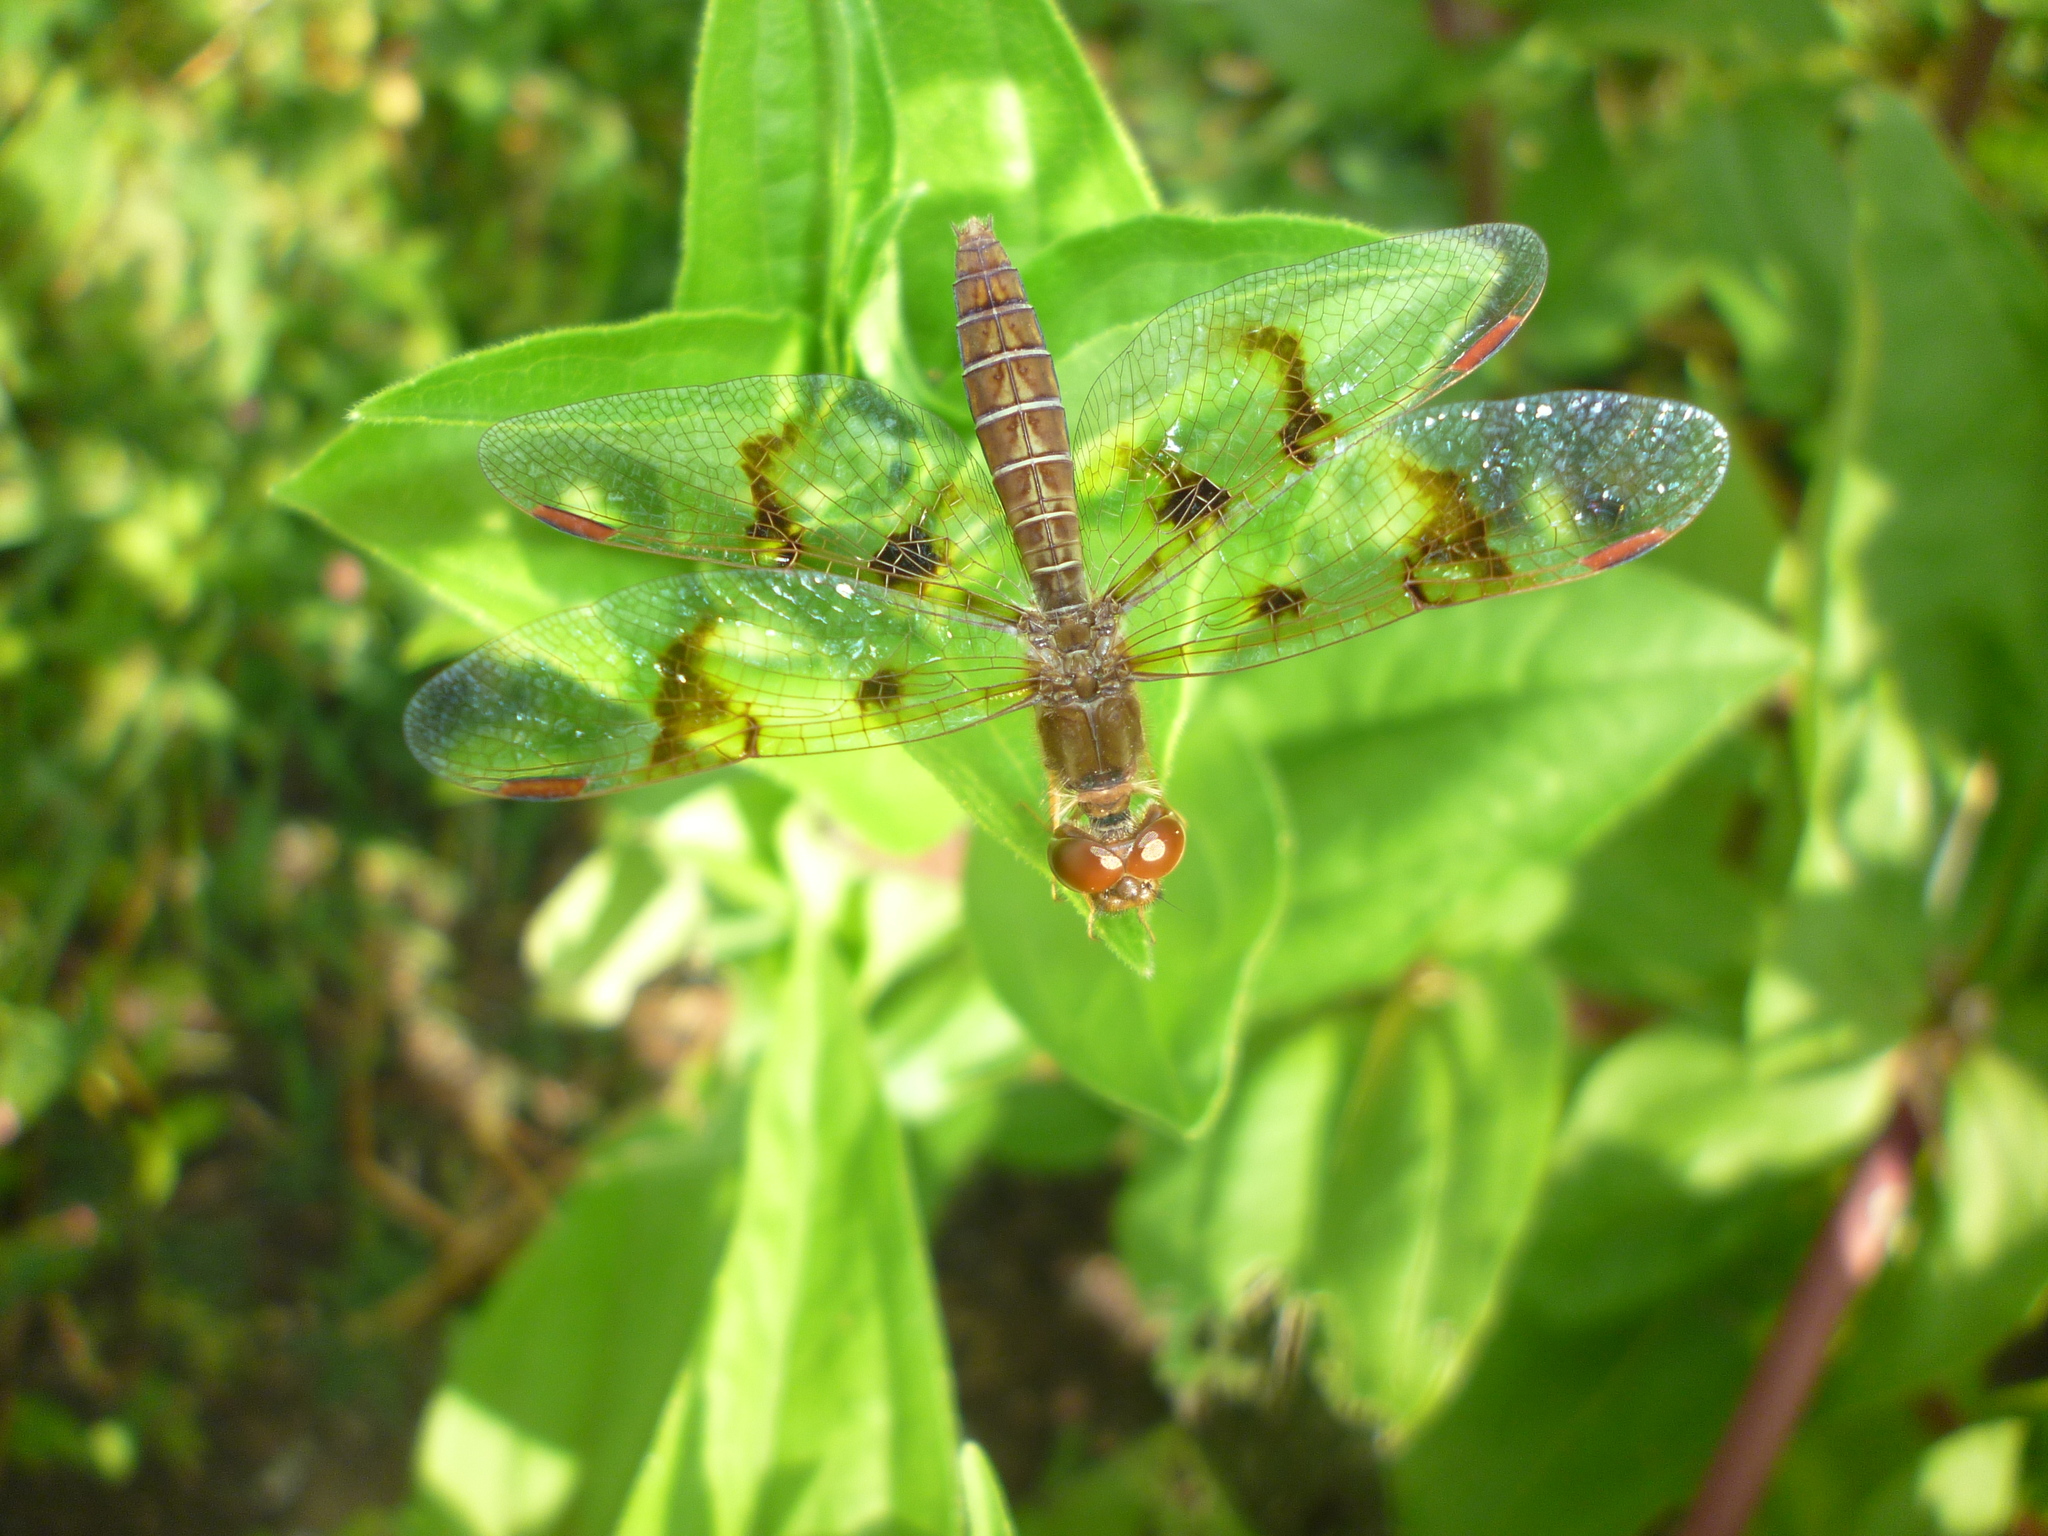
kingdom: Animalia
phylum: Arthropoda
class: Insecta
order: Odonata
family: Libellulidae
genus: Perithemis
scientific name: Perithemis tenera
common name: Eastern amberwing
